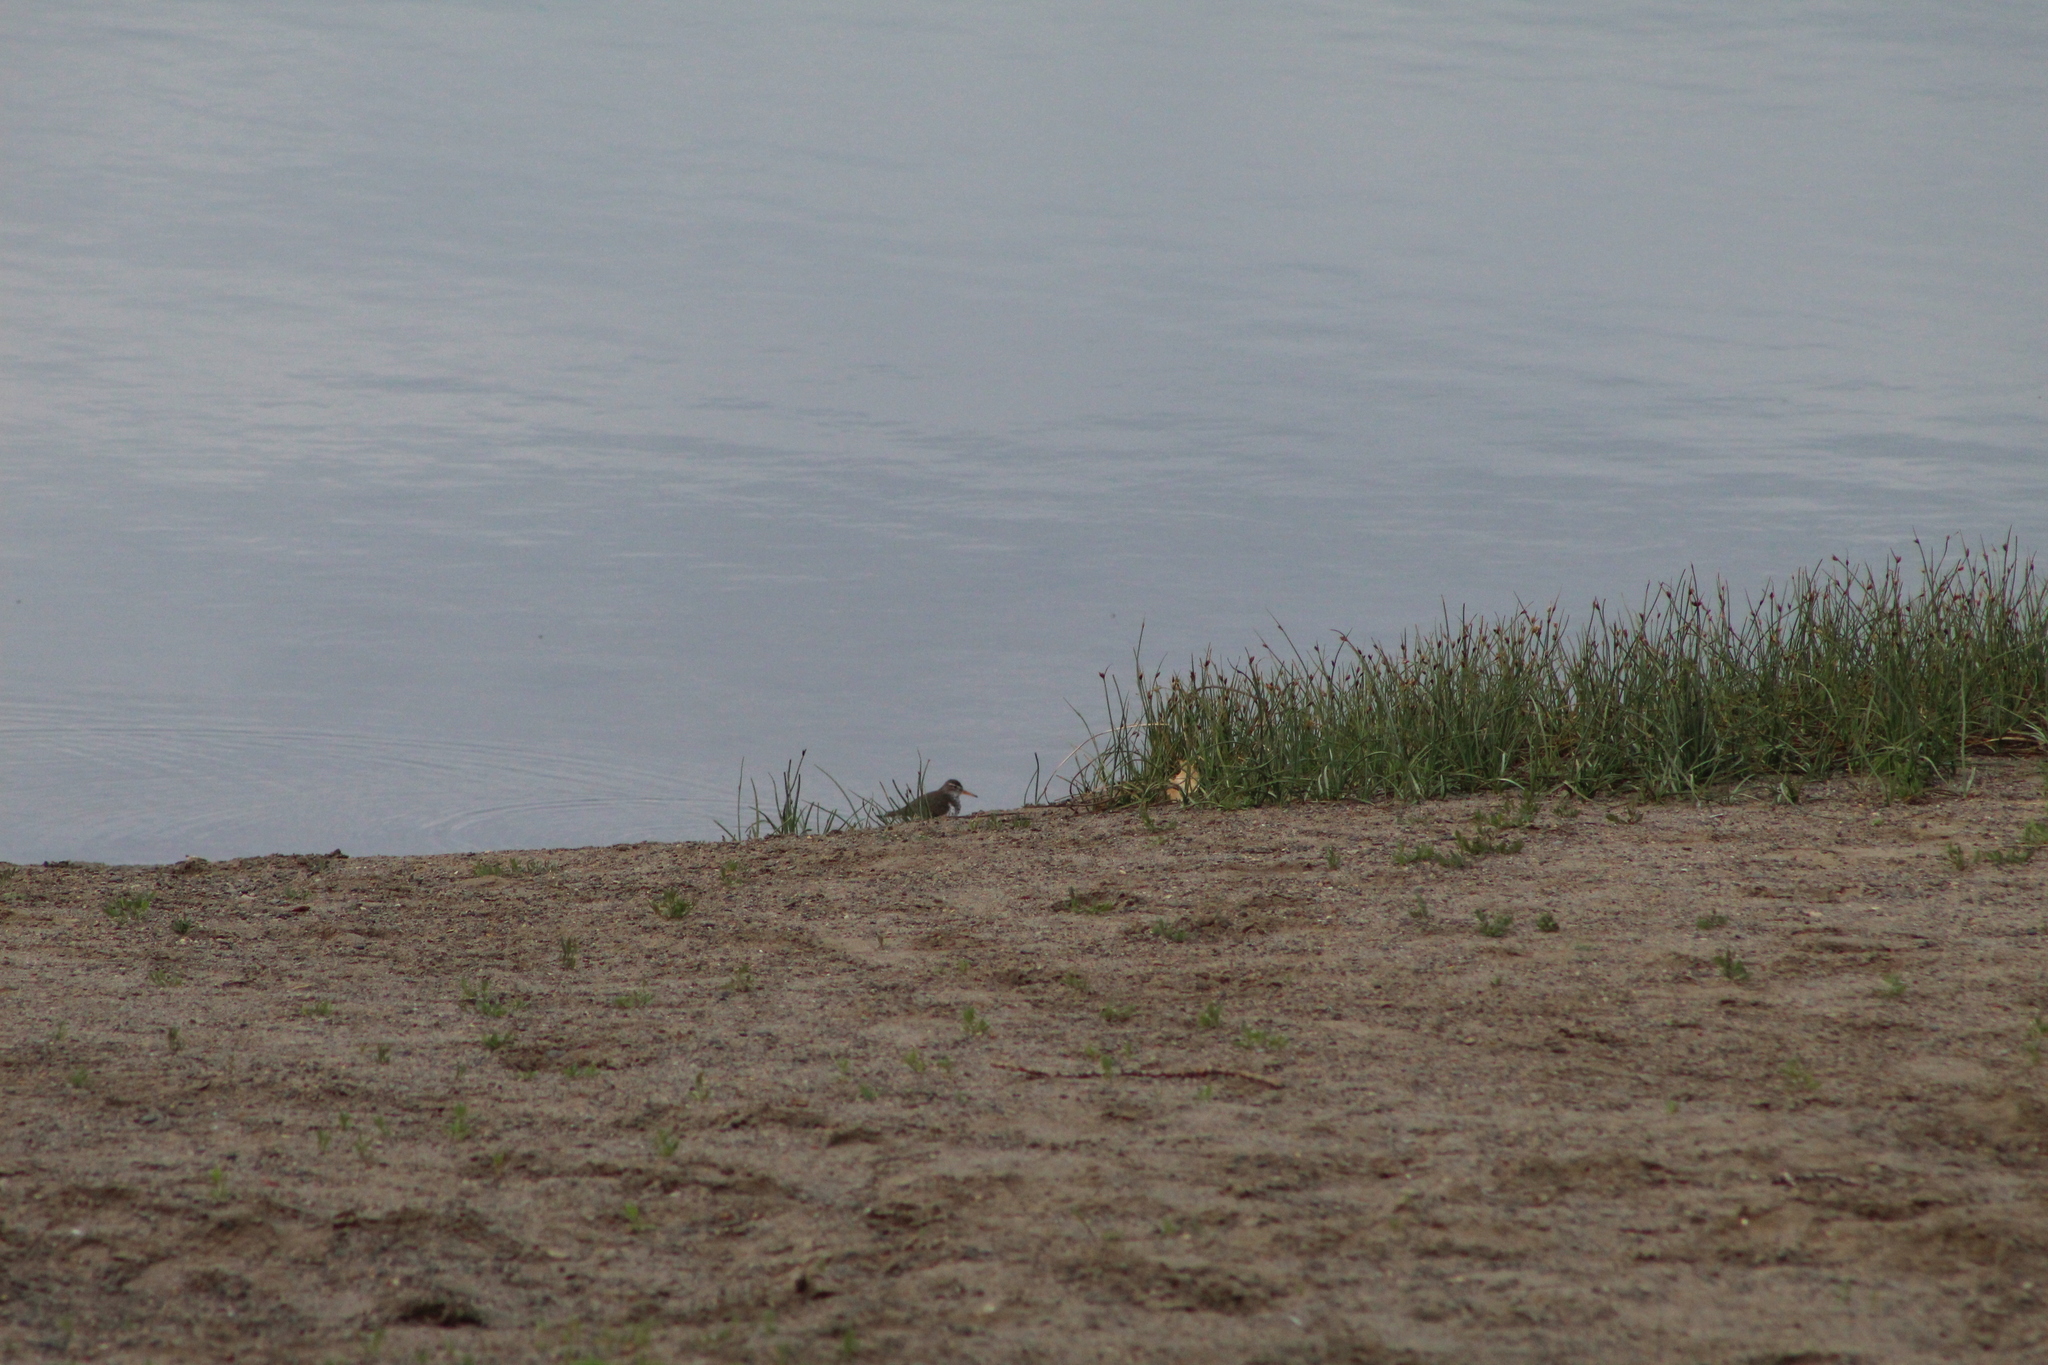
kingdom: Animalia
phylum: Chordata
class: Aves
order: Charadriiformes
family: Scolopacidae
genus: Actitis
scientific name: Actitis macularius
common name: Spotted sandpiper
